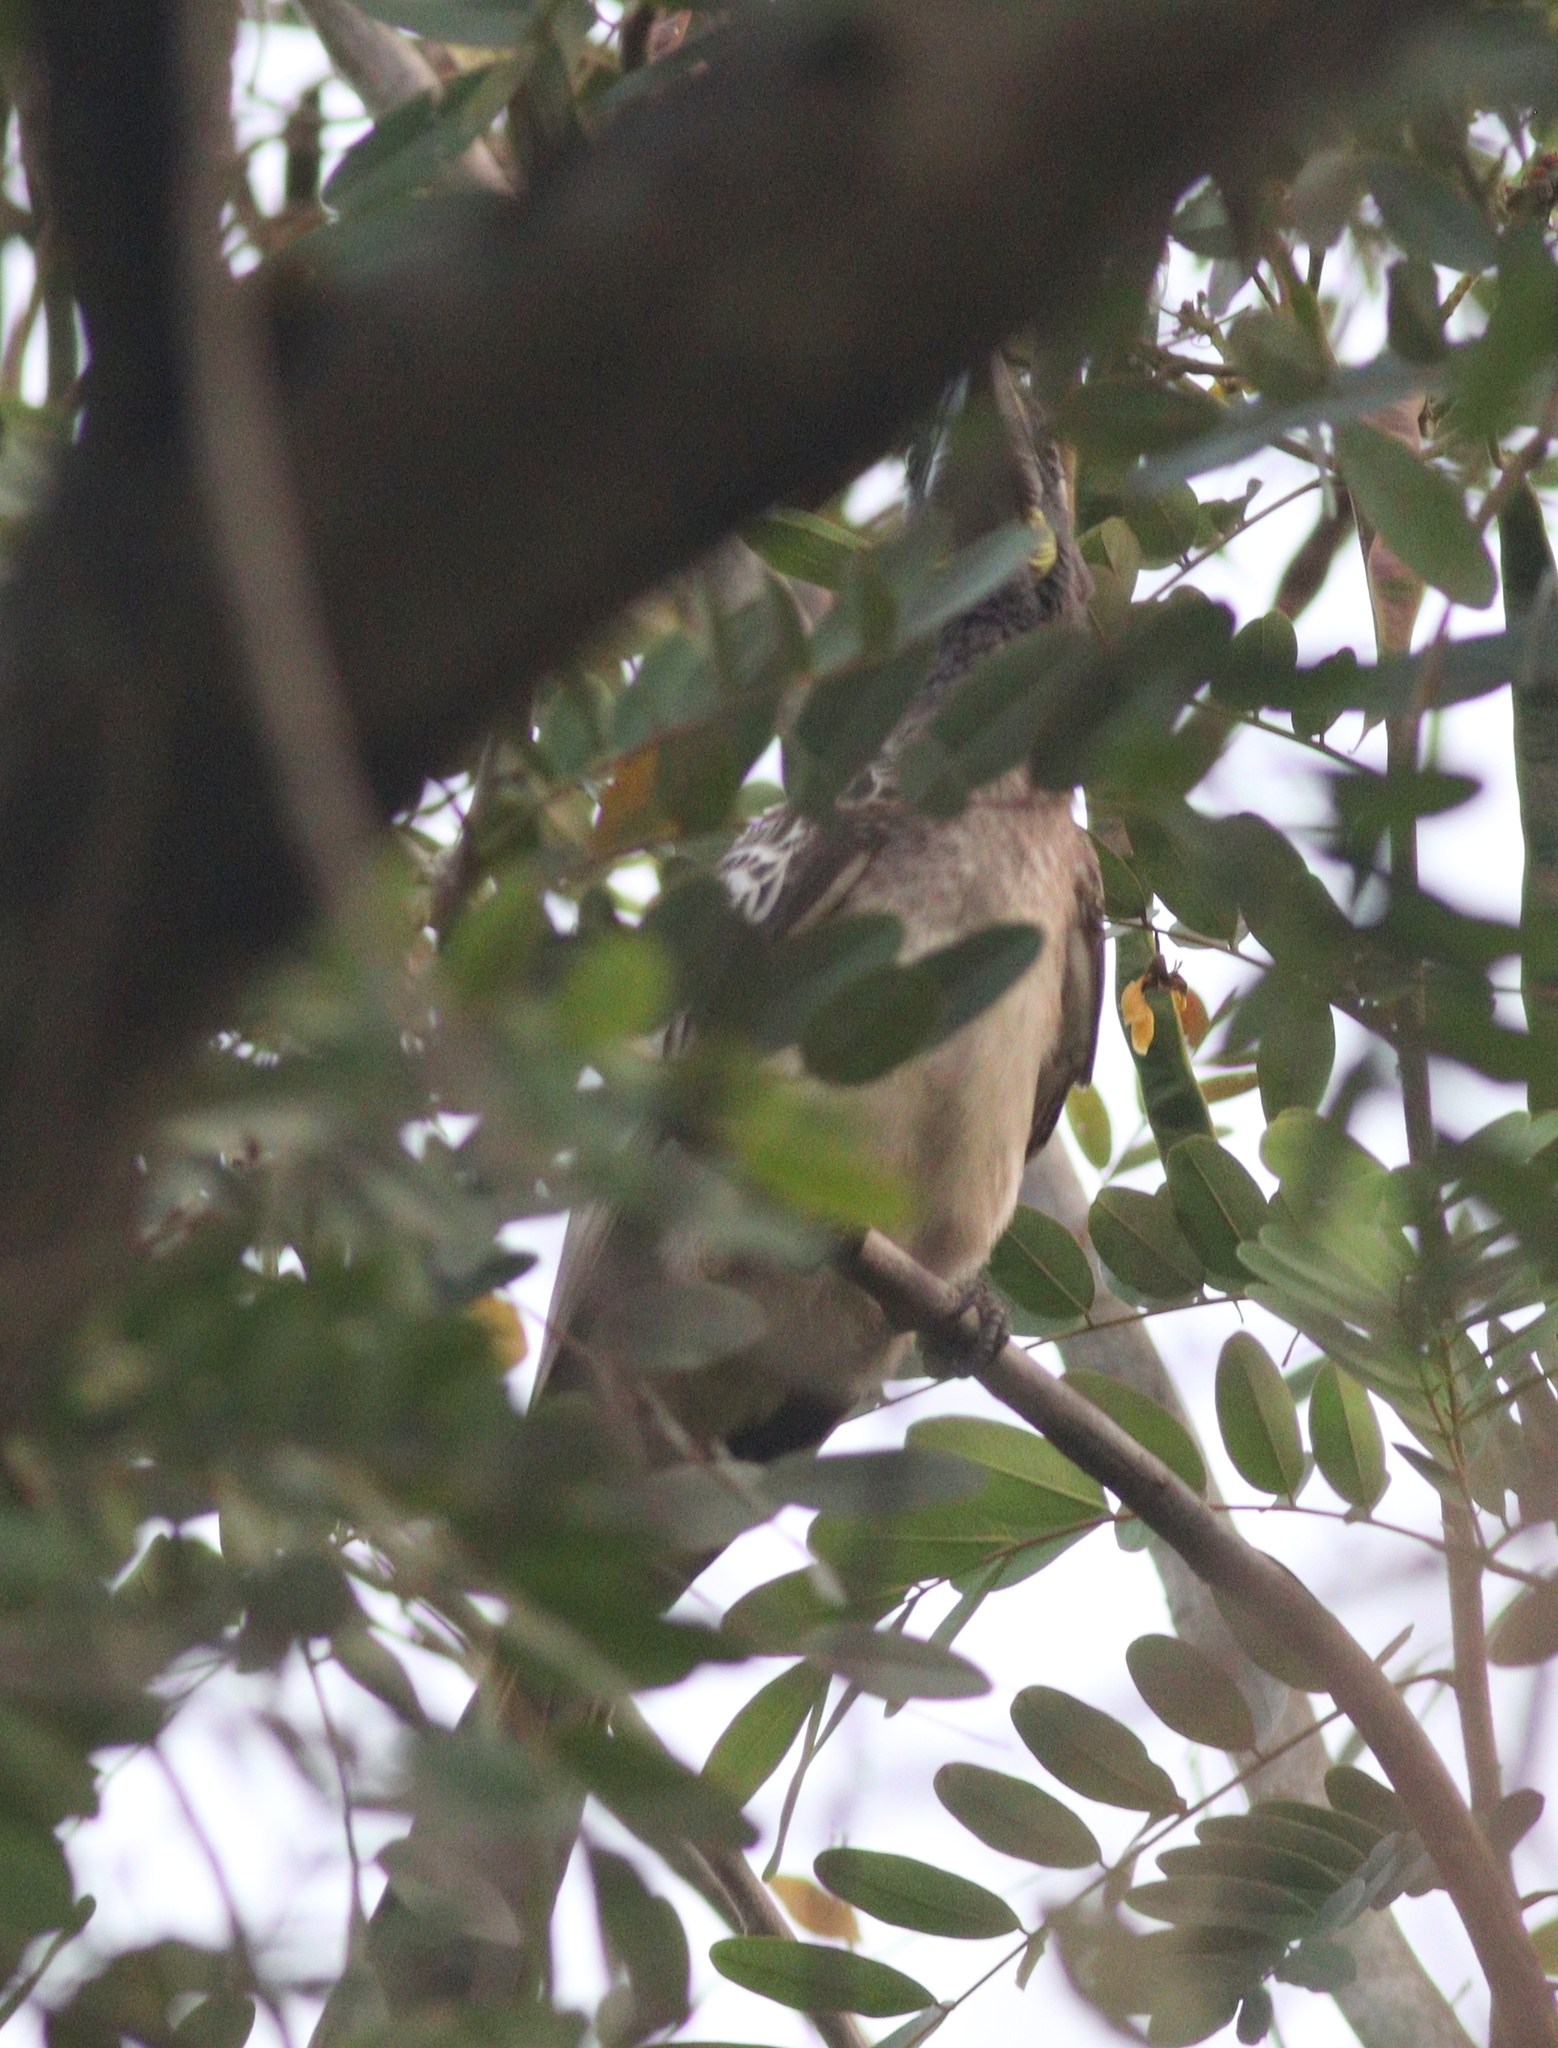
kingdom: Animalia
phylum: Chordata
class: Aves
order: Bucerotiformes
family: Bucerotidae
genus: Lophoceros
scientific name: Lophoceros nasutus
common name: African grey hornbill
